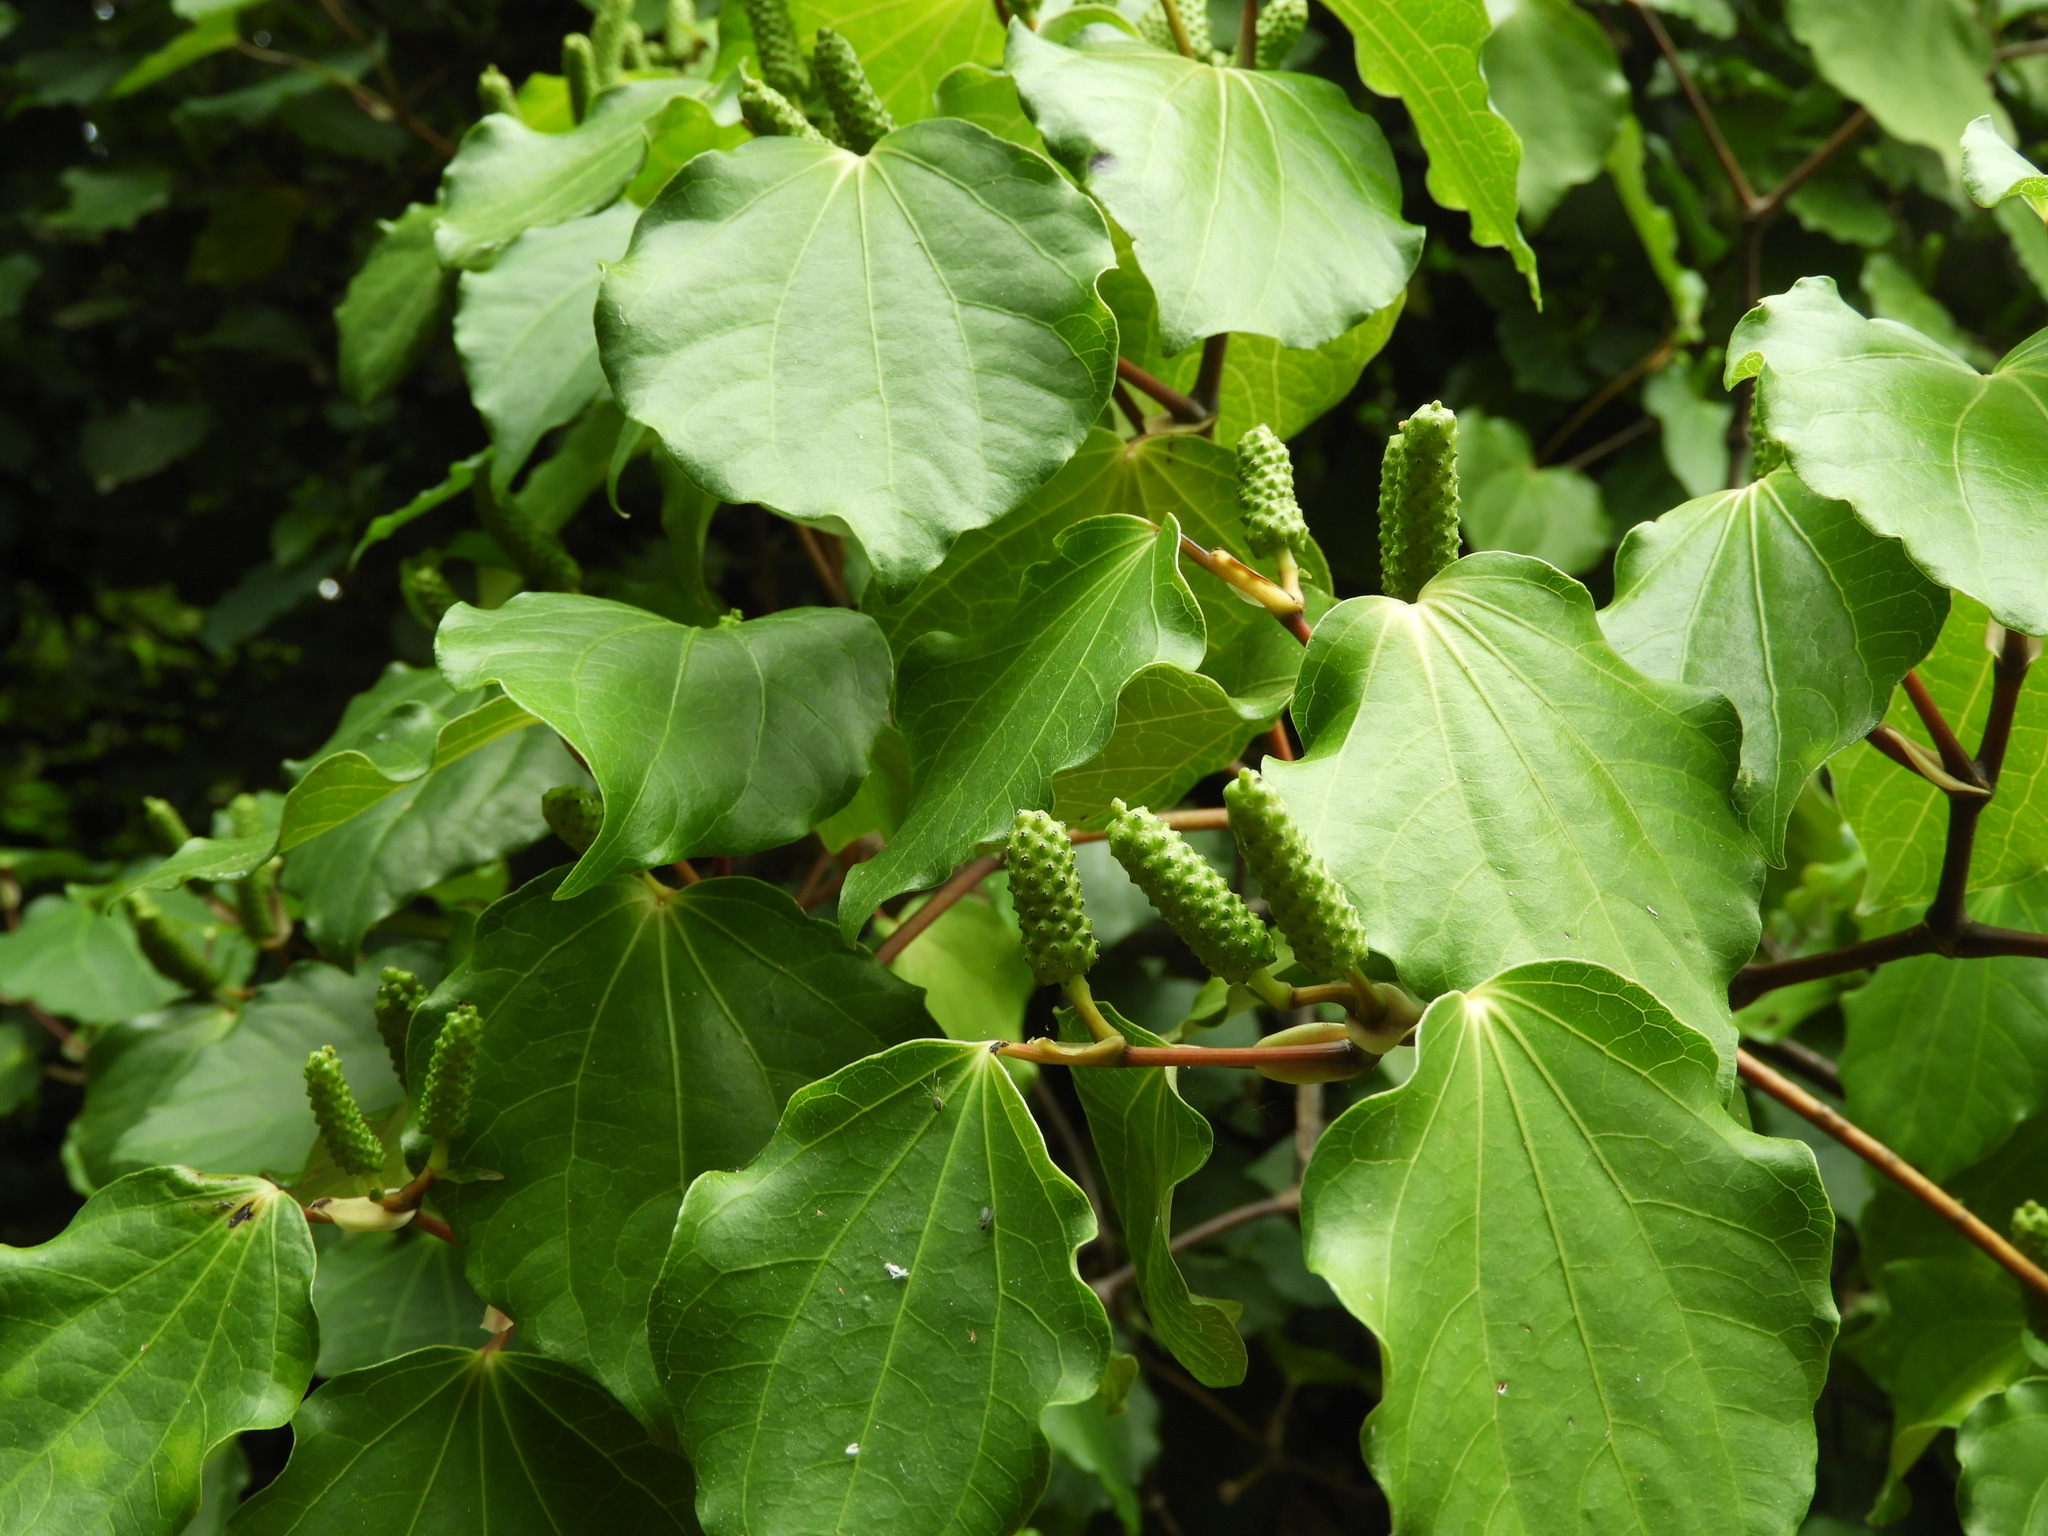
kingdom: Plantae
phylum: Tracheophyta
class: Magnoliopsida
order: Piperales
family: Piperaceae
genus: Macropiper
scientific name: Macropiper excelsum
